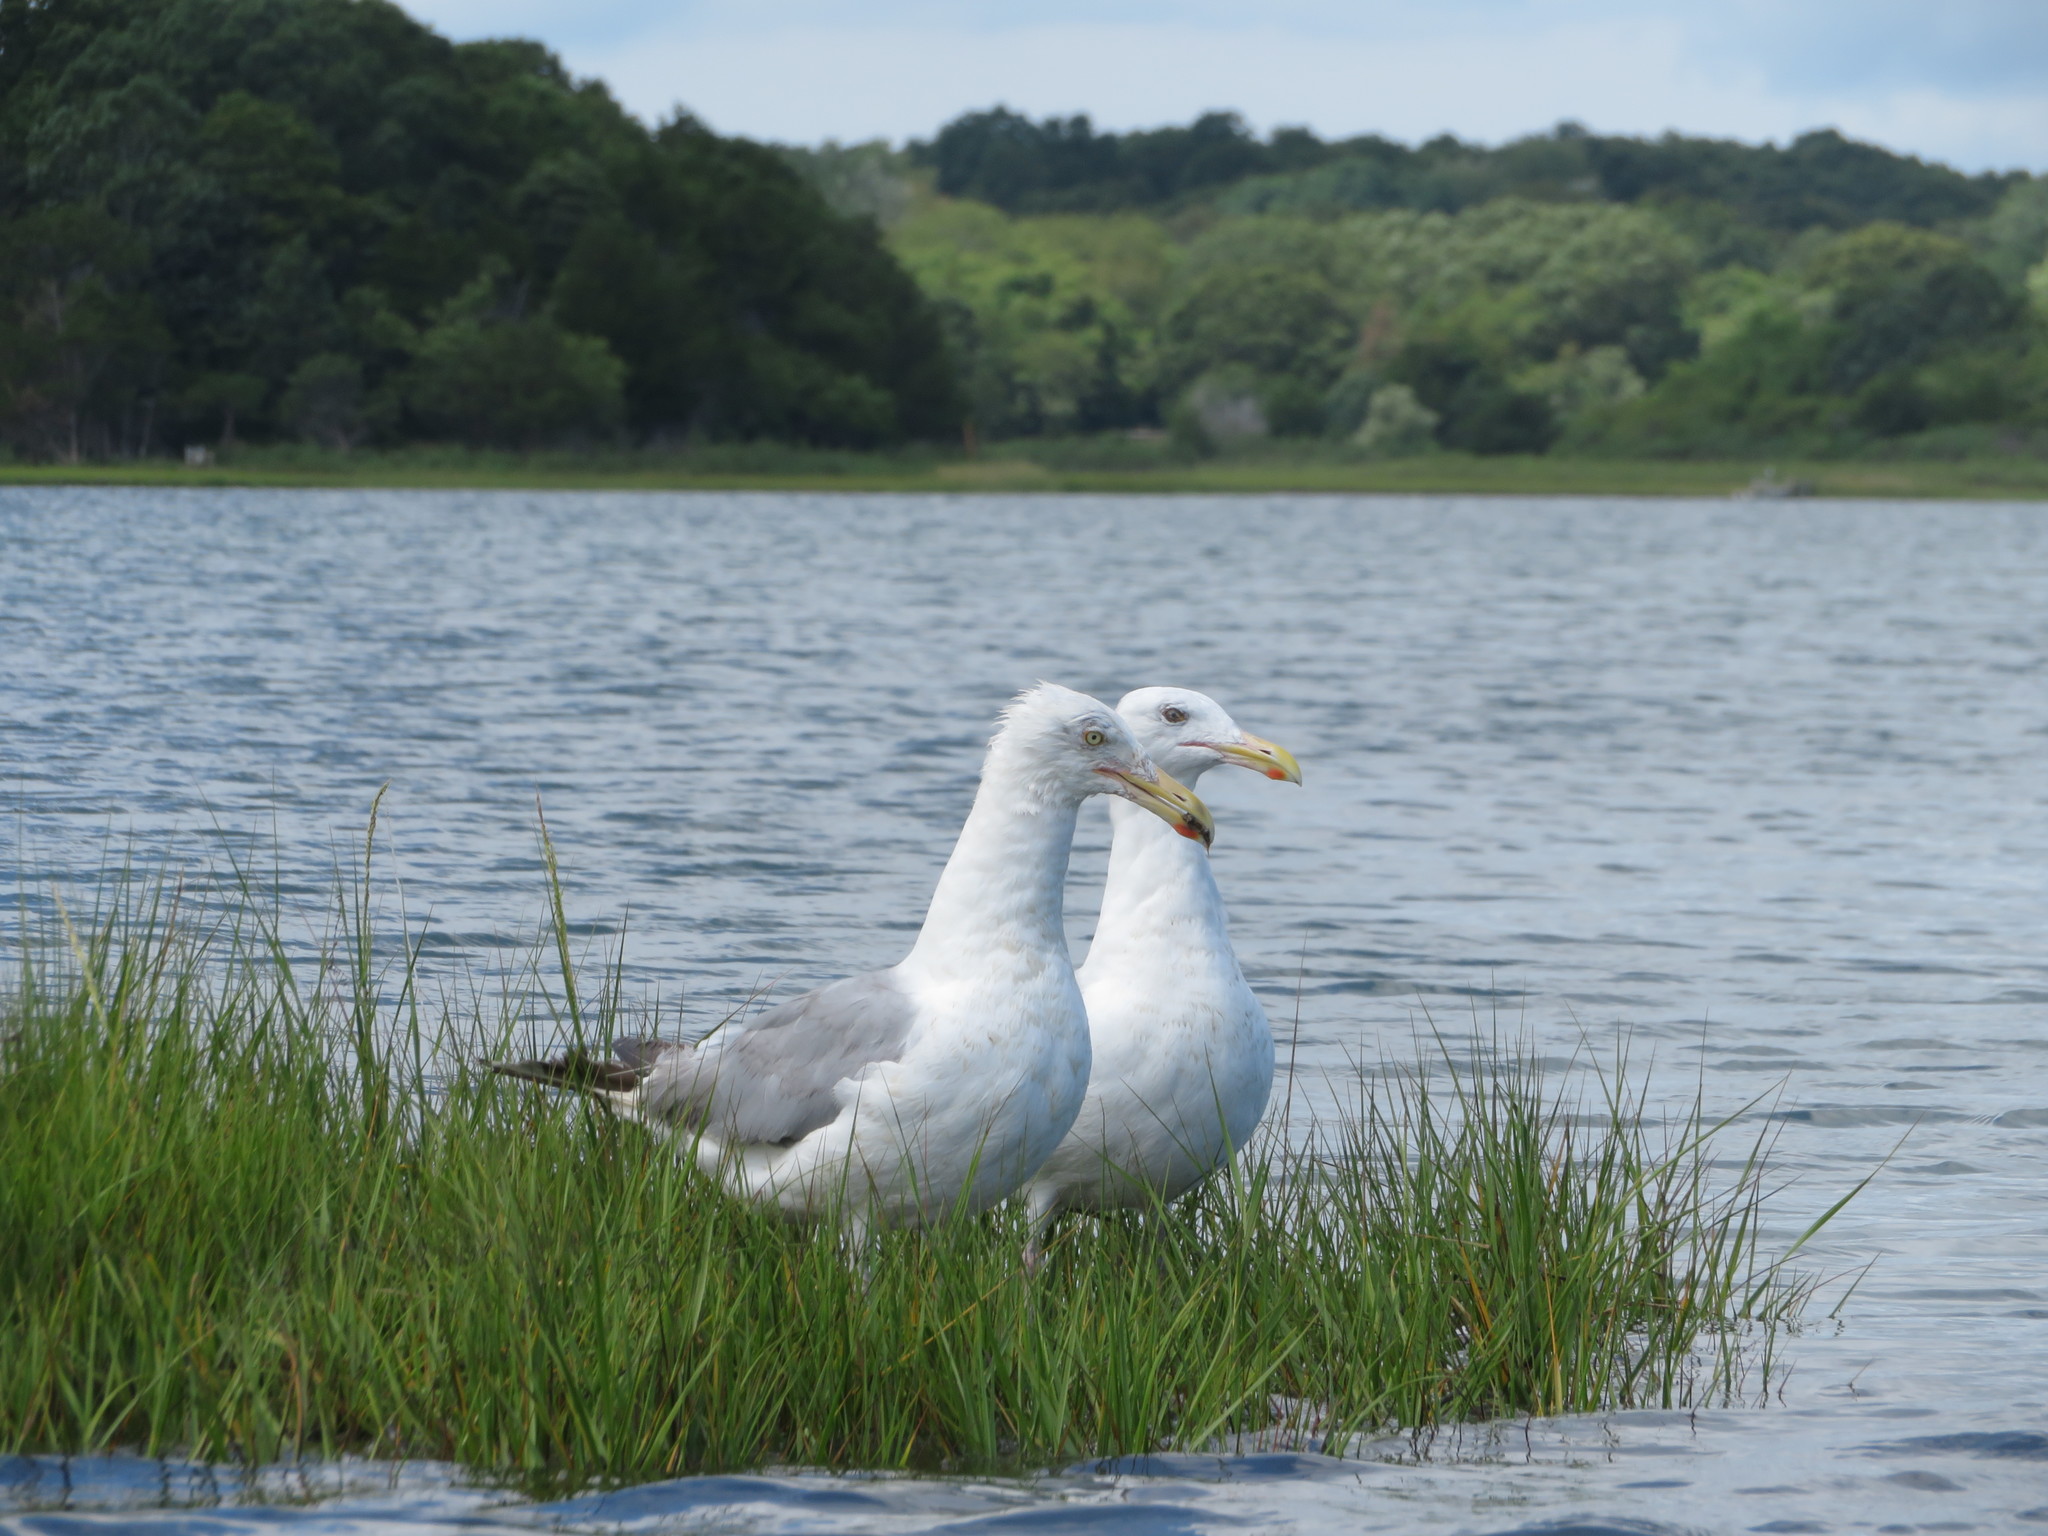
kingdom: Animalia
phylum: Chordata
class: Aves
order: Charadriiformes
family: Laridae
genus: Larus
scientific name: Larus argentatus
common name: Herring gull
